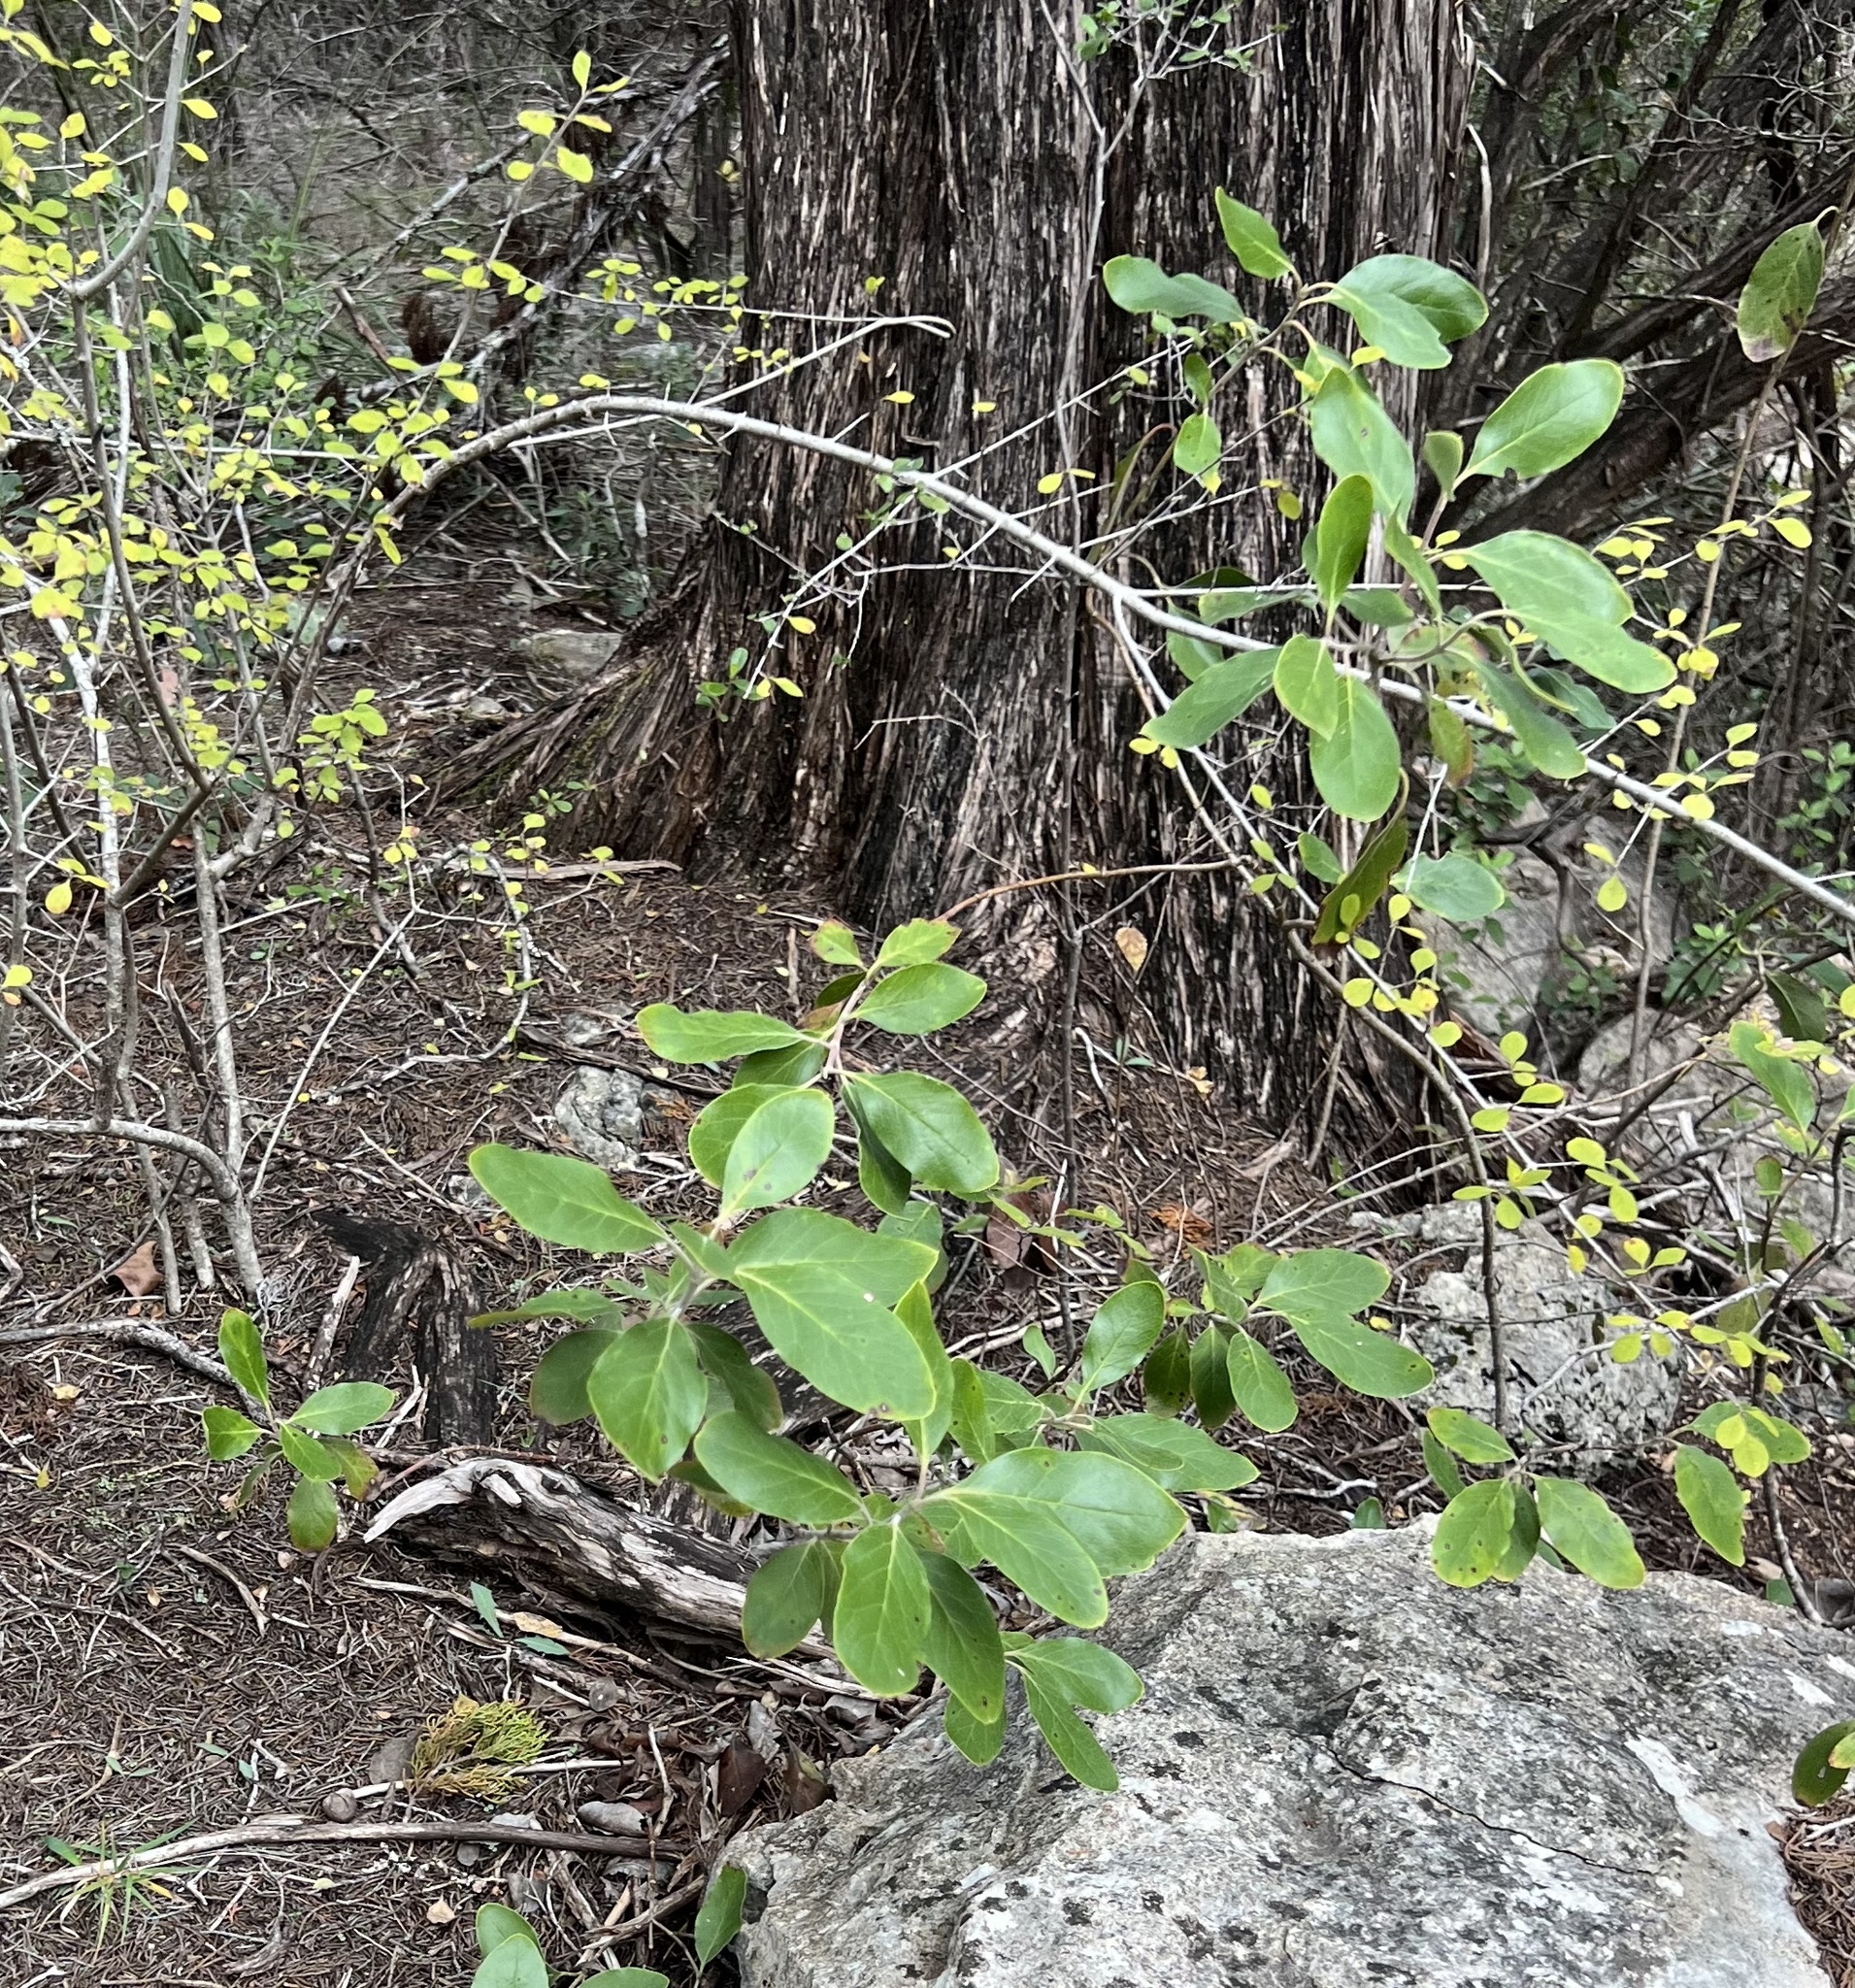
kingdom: Plantae
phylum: Tracheophyta
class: Magnoliopsida
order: Garryales
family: Garryaceae
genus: Garrya
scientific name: Garrya lindheimeri
